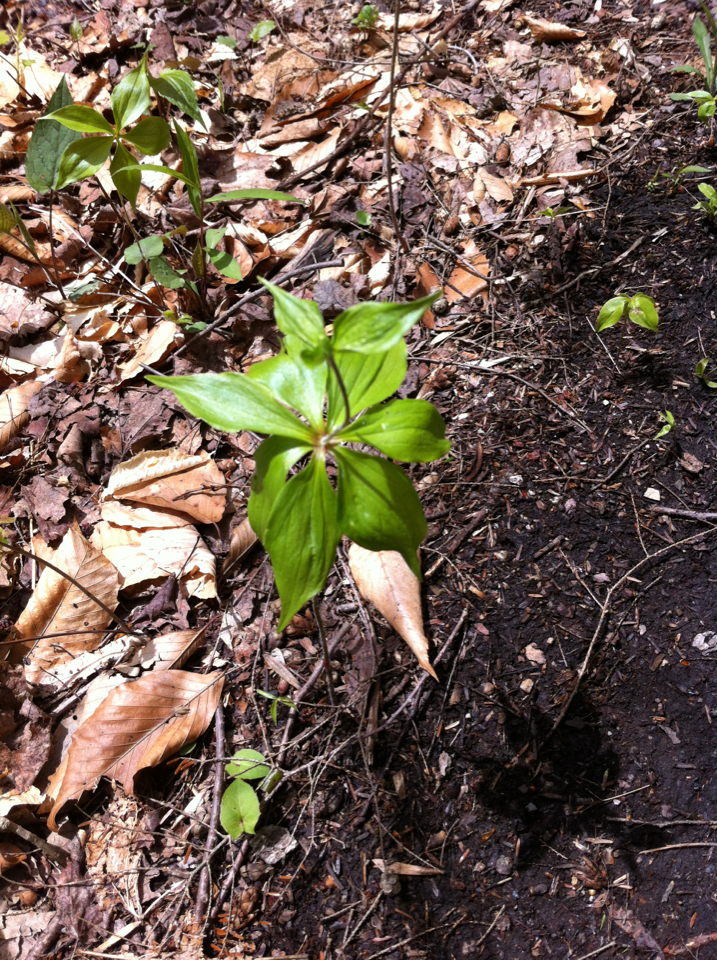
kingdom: Plantae
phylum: Tracheophyta
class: Liliopsida
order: Liliales
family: Liliaceae
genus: Medeola
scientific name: Medeola virginiana
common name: Indian cucumber-root
